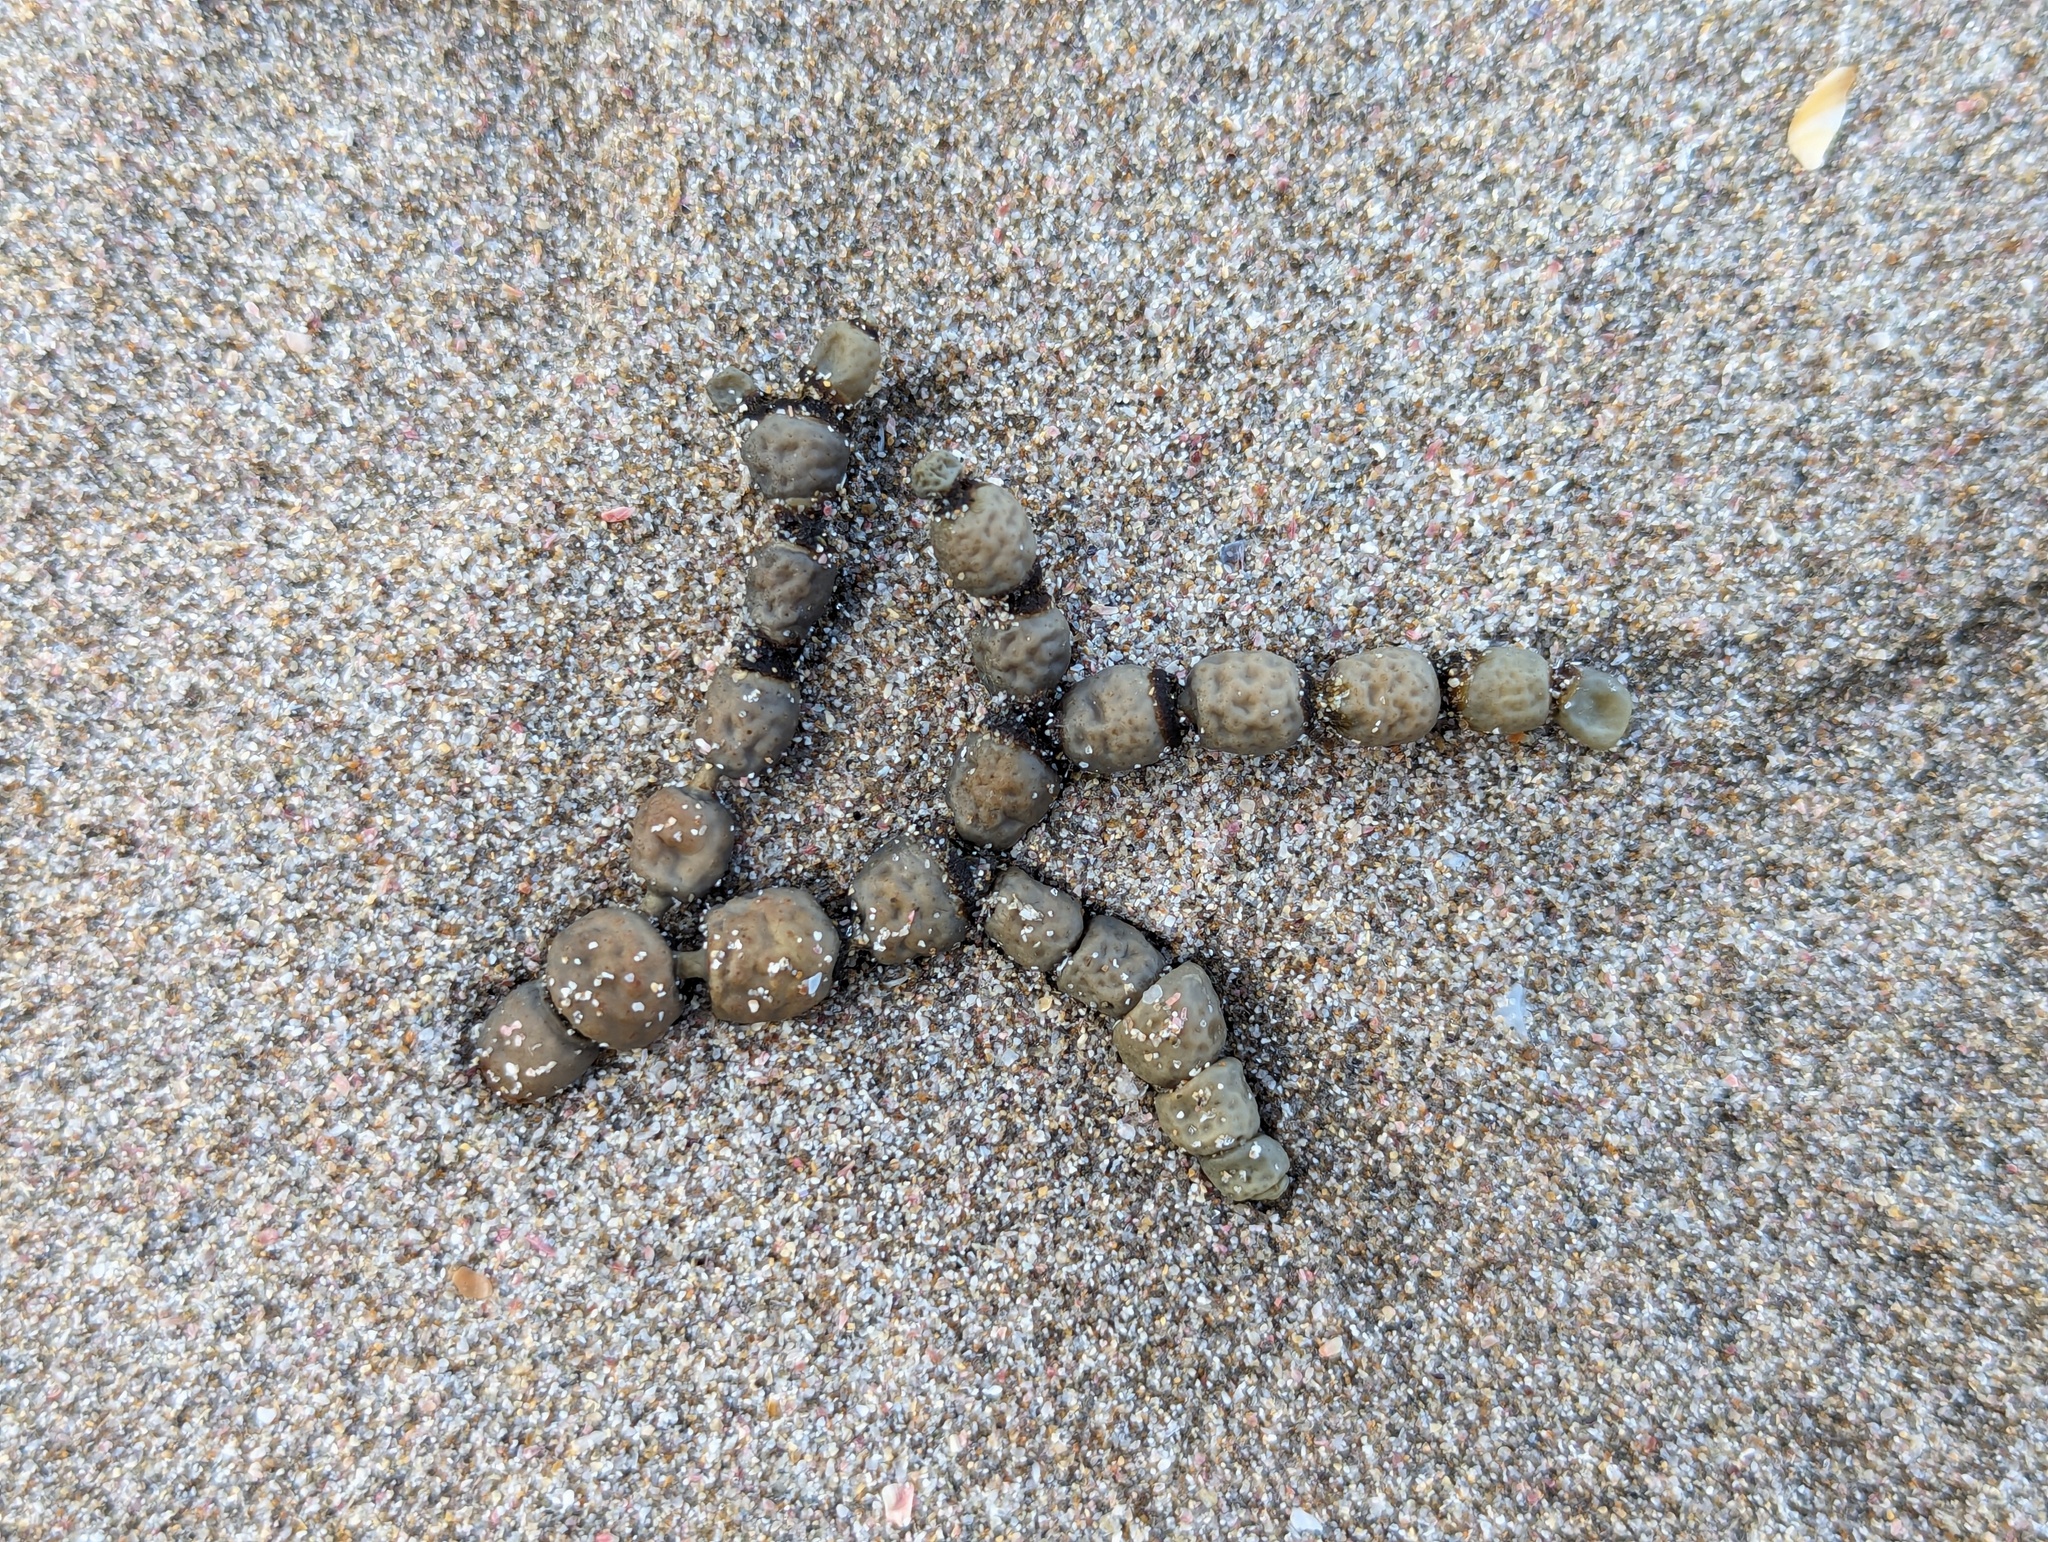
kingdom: Chromista
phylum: Ochrophyta
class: Phaeophyceae
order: Fucales
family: Hormosiraceae
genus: Hormosira
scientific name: Hormosira banksii
